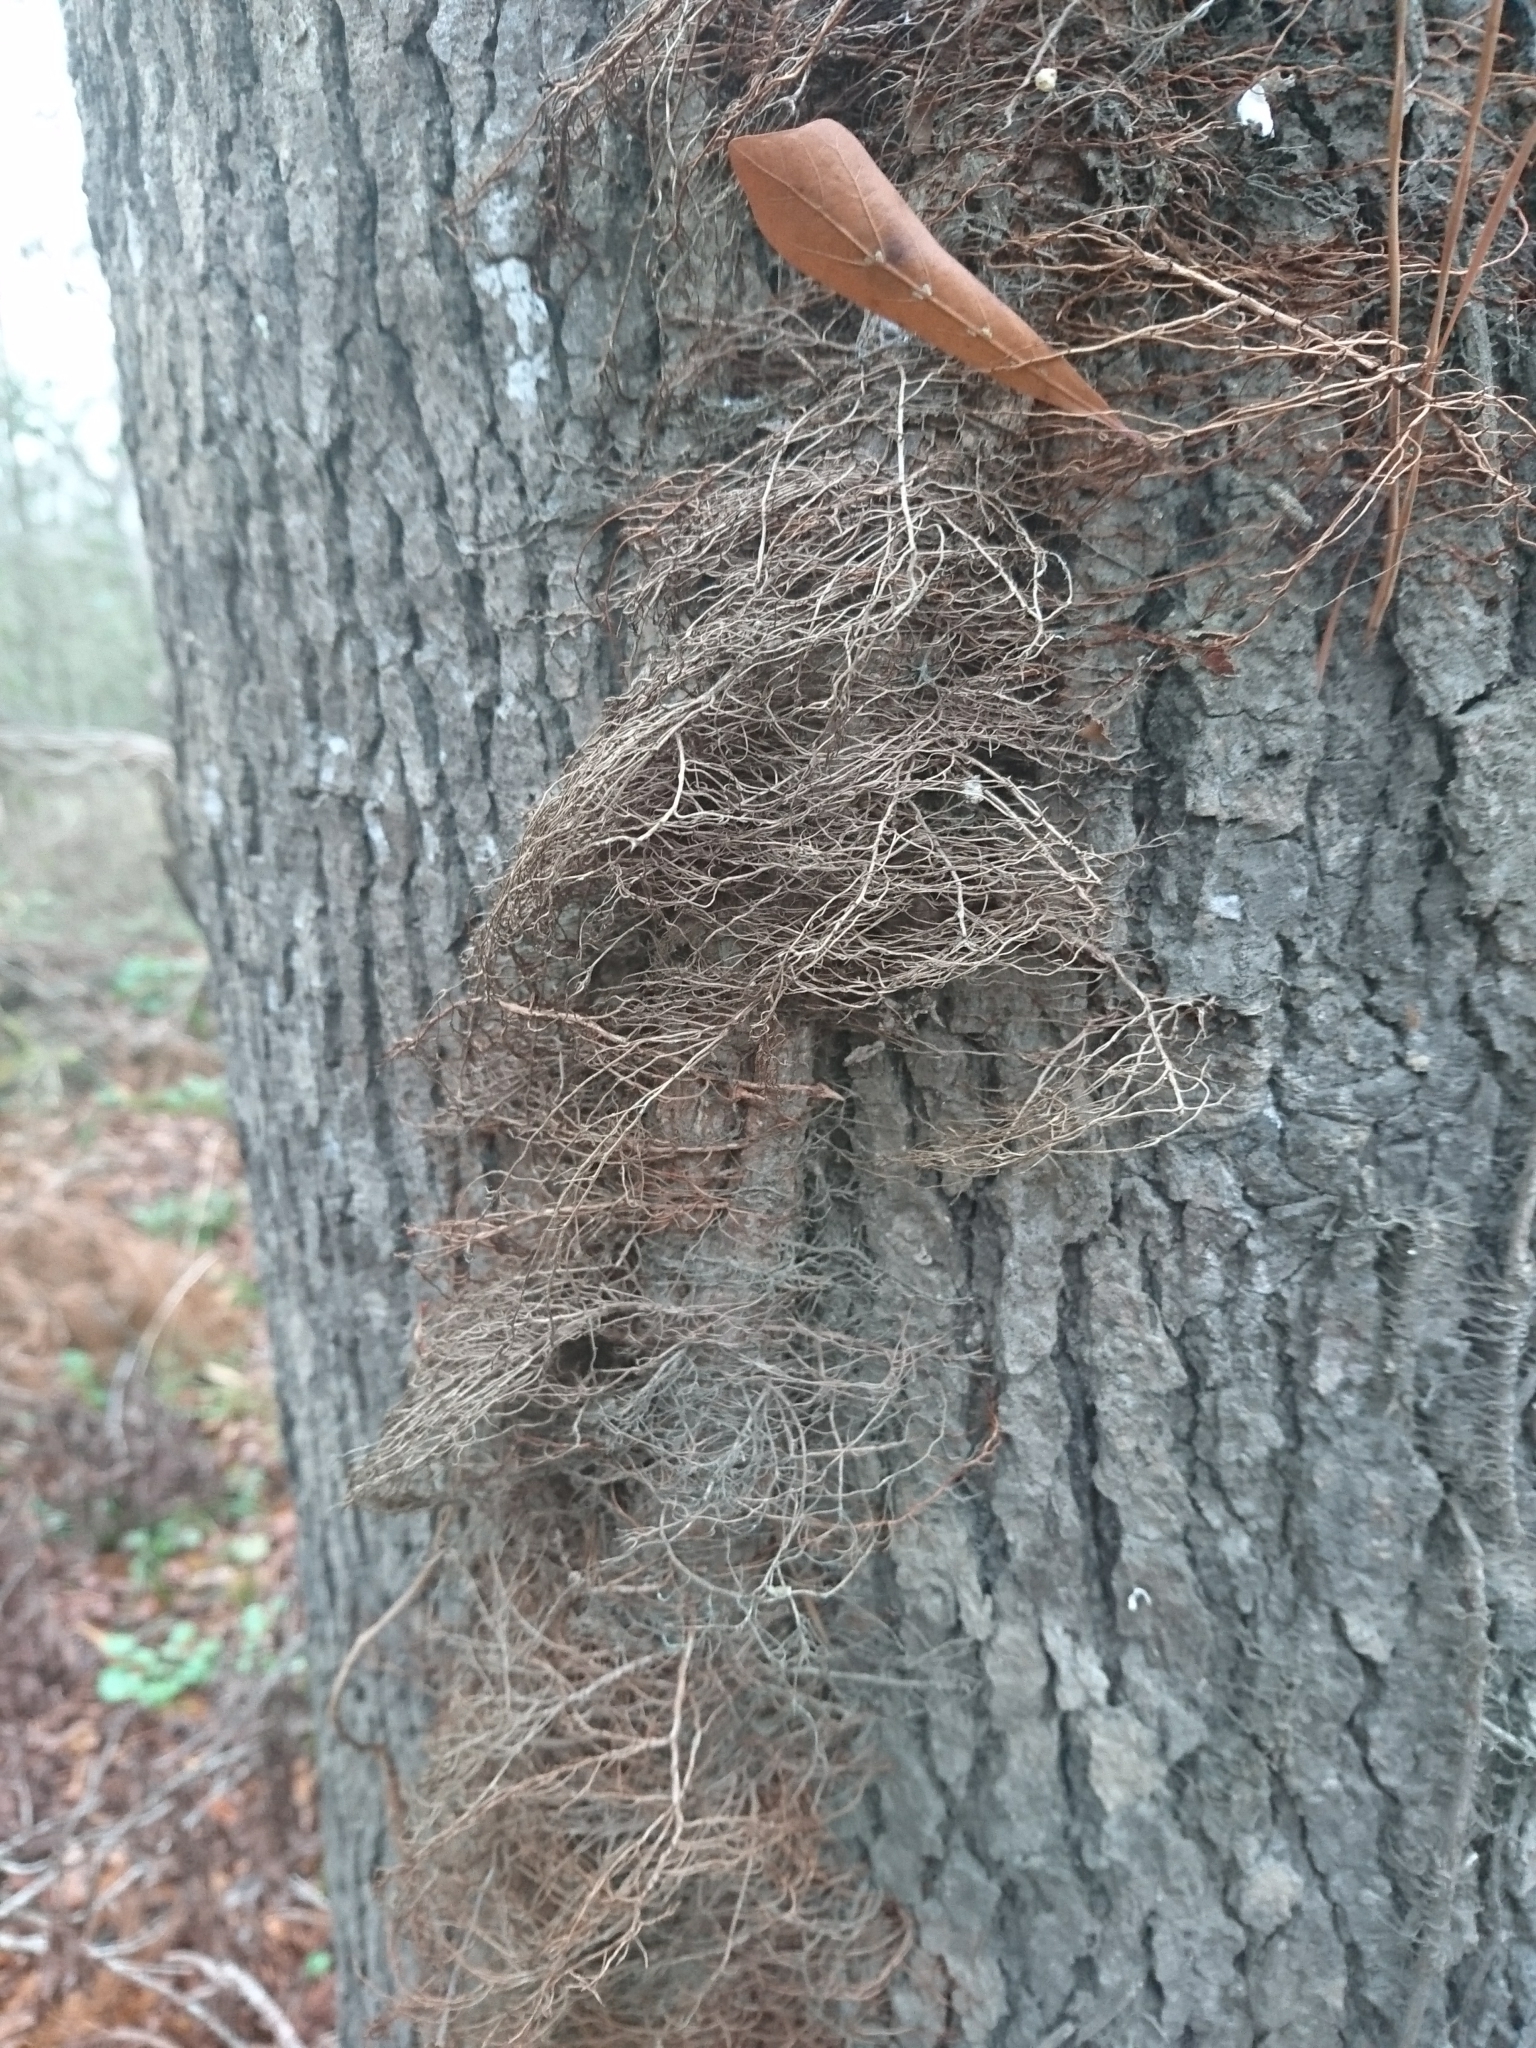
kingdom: Plantae
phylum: Tracheophyta
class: Magnoliopsida
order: Sapindales
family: Anacardiaceae
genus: Toxicodendron
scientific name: Toxicodendron radicans
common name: Poison ivy
